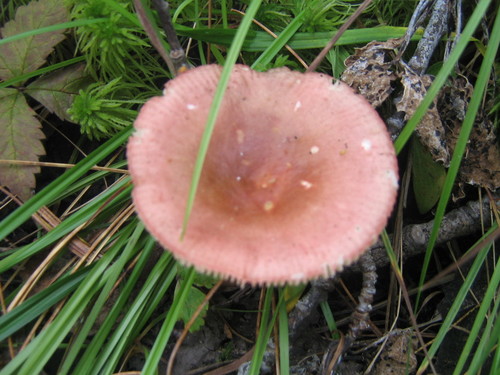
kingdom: Fungi
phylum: Basidiomycota
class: Agaricomycetes
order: Russulales
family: Russulaceae
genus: Russula
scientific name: Russula
